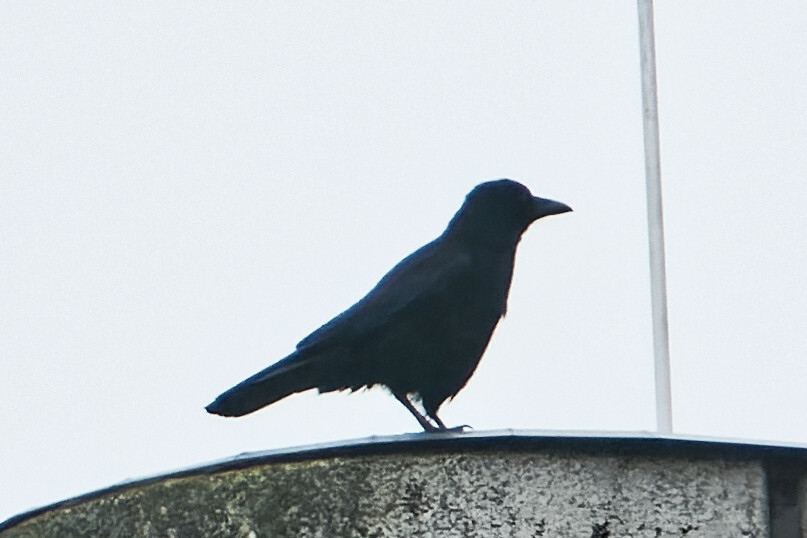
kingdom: Animalia
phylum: Chordata
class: Aves
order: Passeriformes
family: Corvidae
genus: Corvus
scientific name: Corvus corone
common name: Carrion crow
